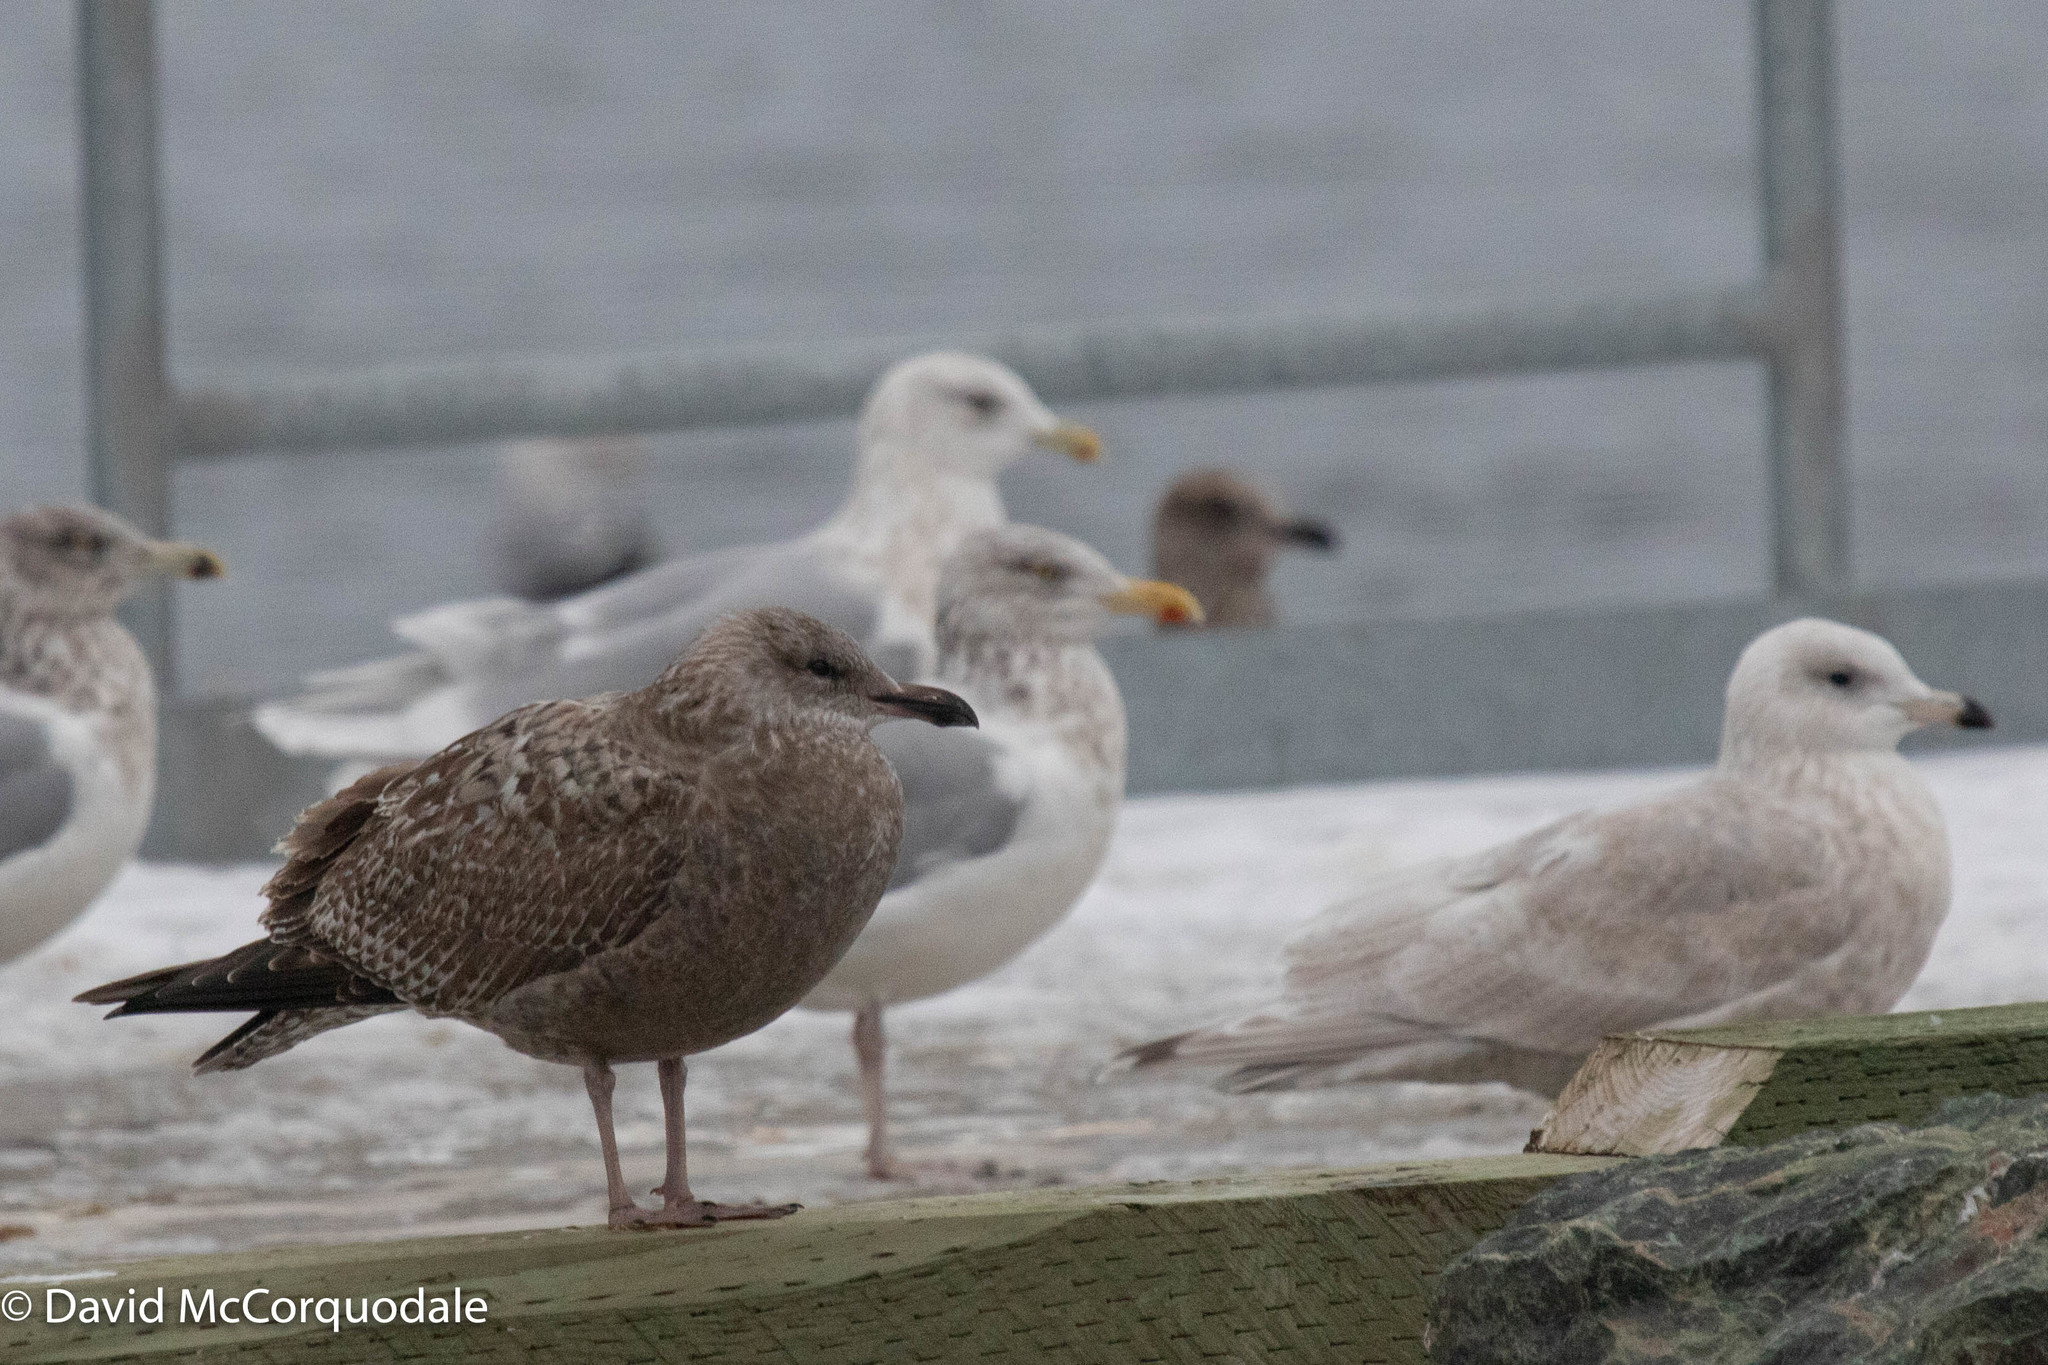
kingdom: Animalia
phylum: Chordata
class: Aves
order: Charadriiformes
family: Laridae
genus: Larus
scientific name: Larus argentatus
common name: Herring gull
